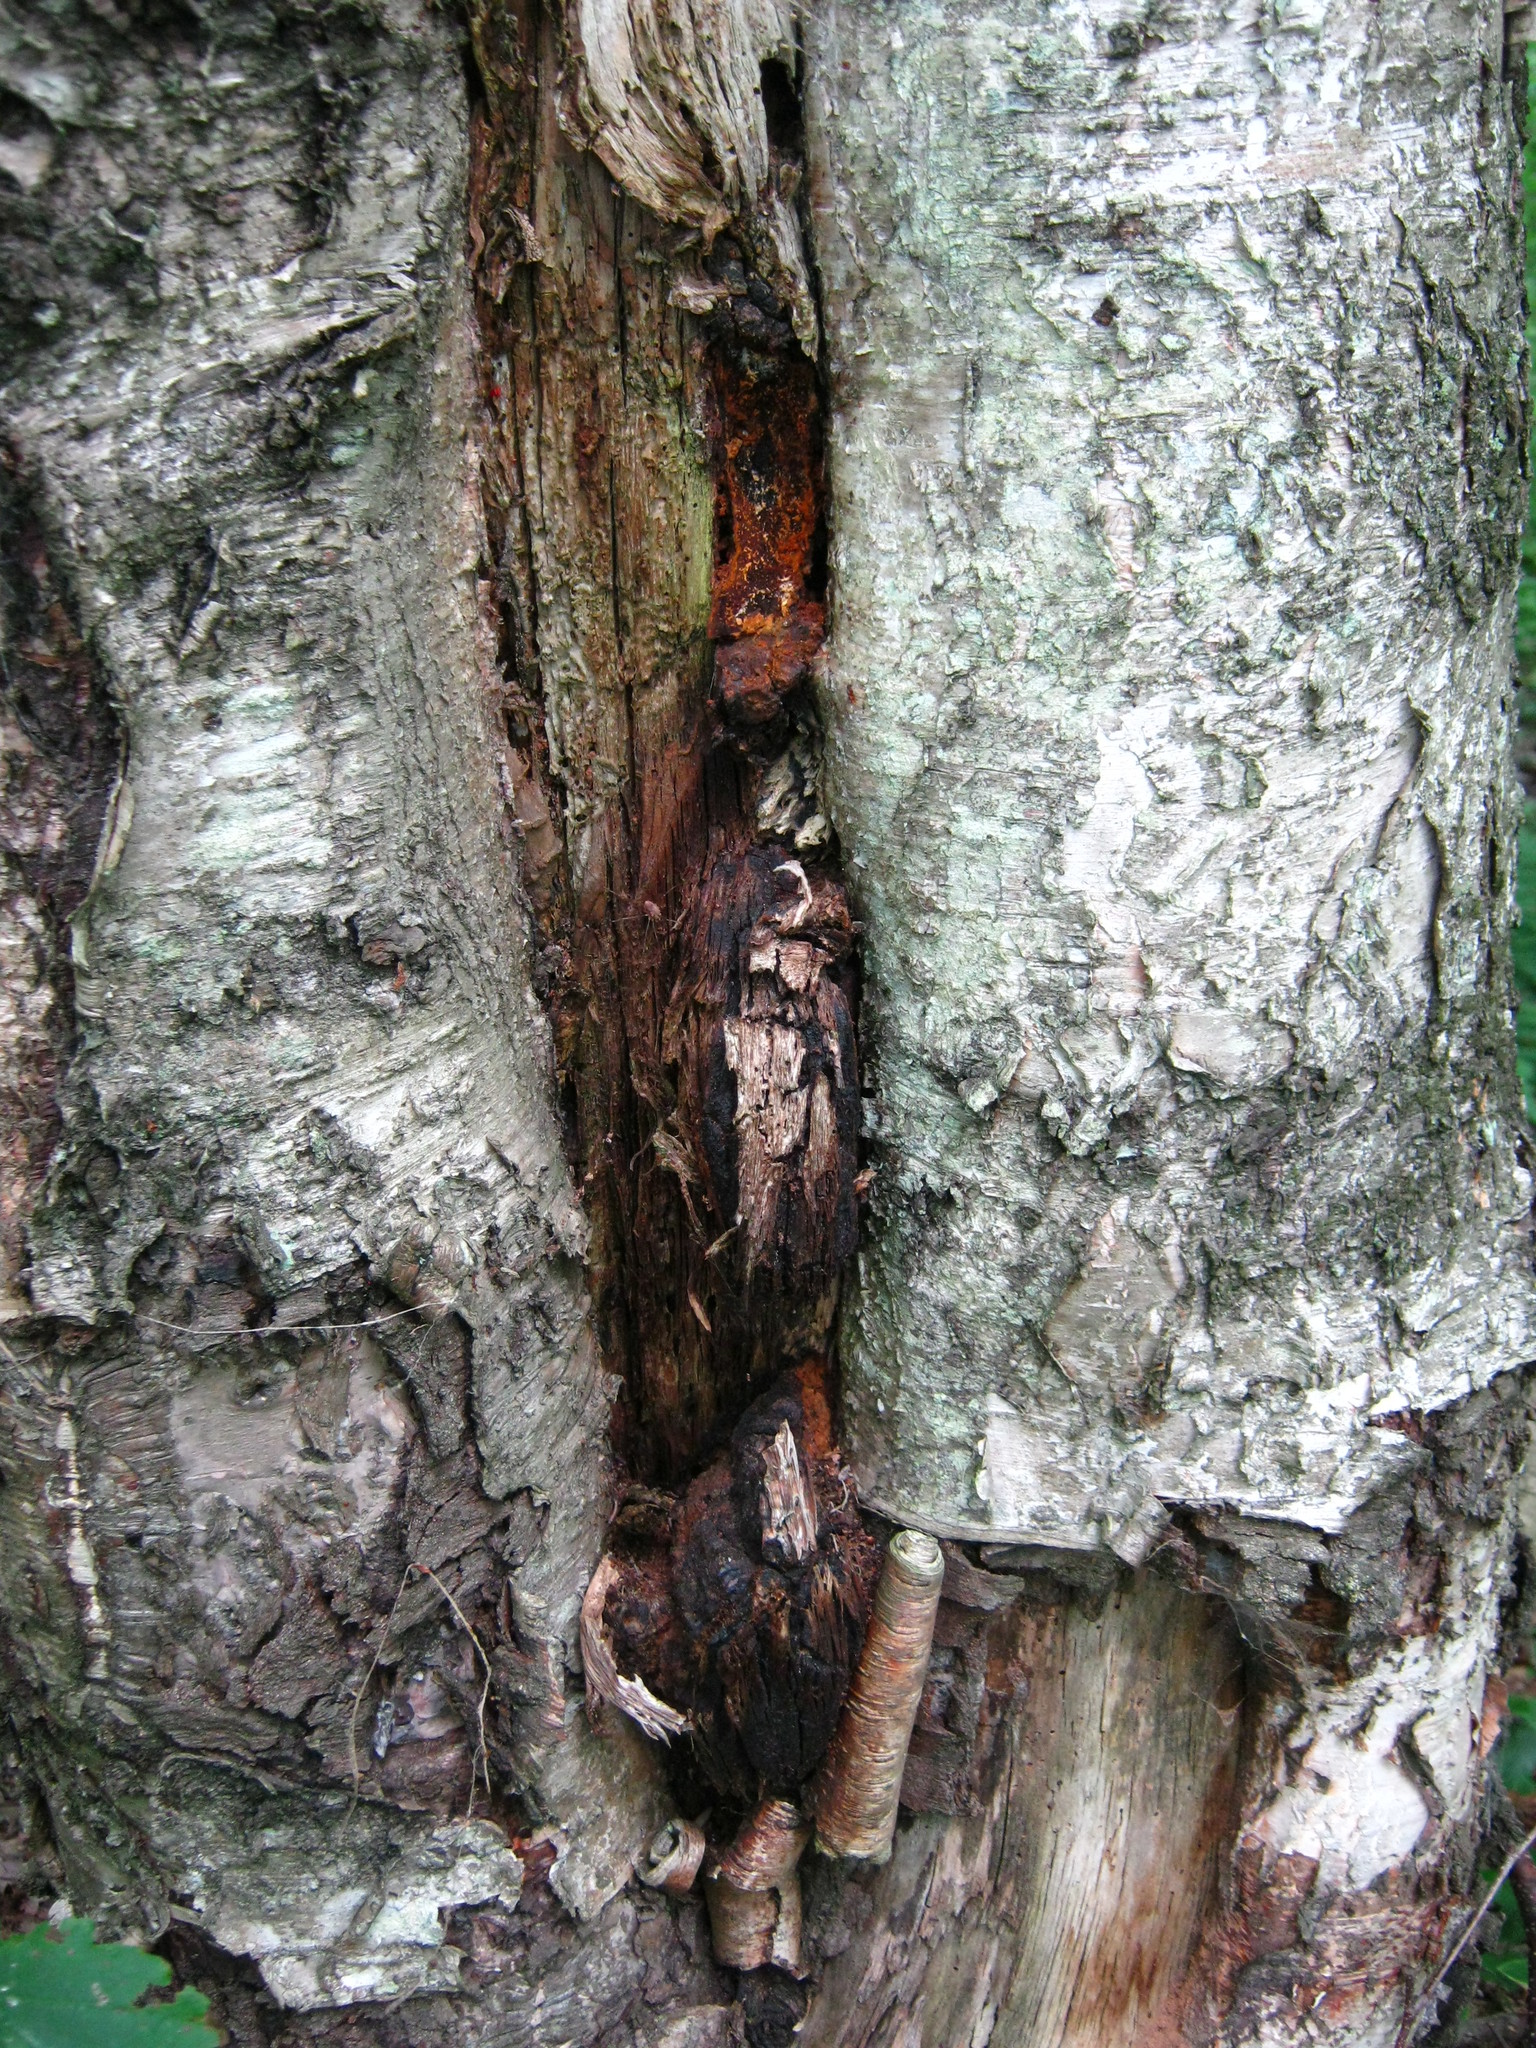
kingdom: Fungi
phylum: Basidiomycota
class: Agaricomycetes
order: Hymenochaetales
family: Hymenochaetaceae
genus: Inonotus
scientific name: Inonotus obliquus
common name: Chaga
